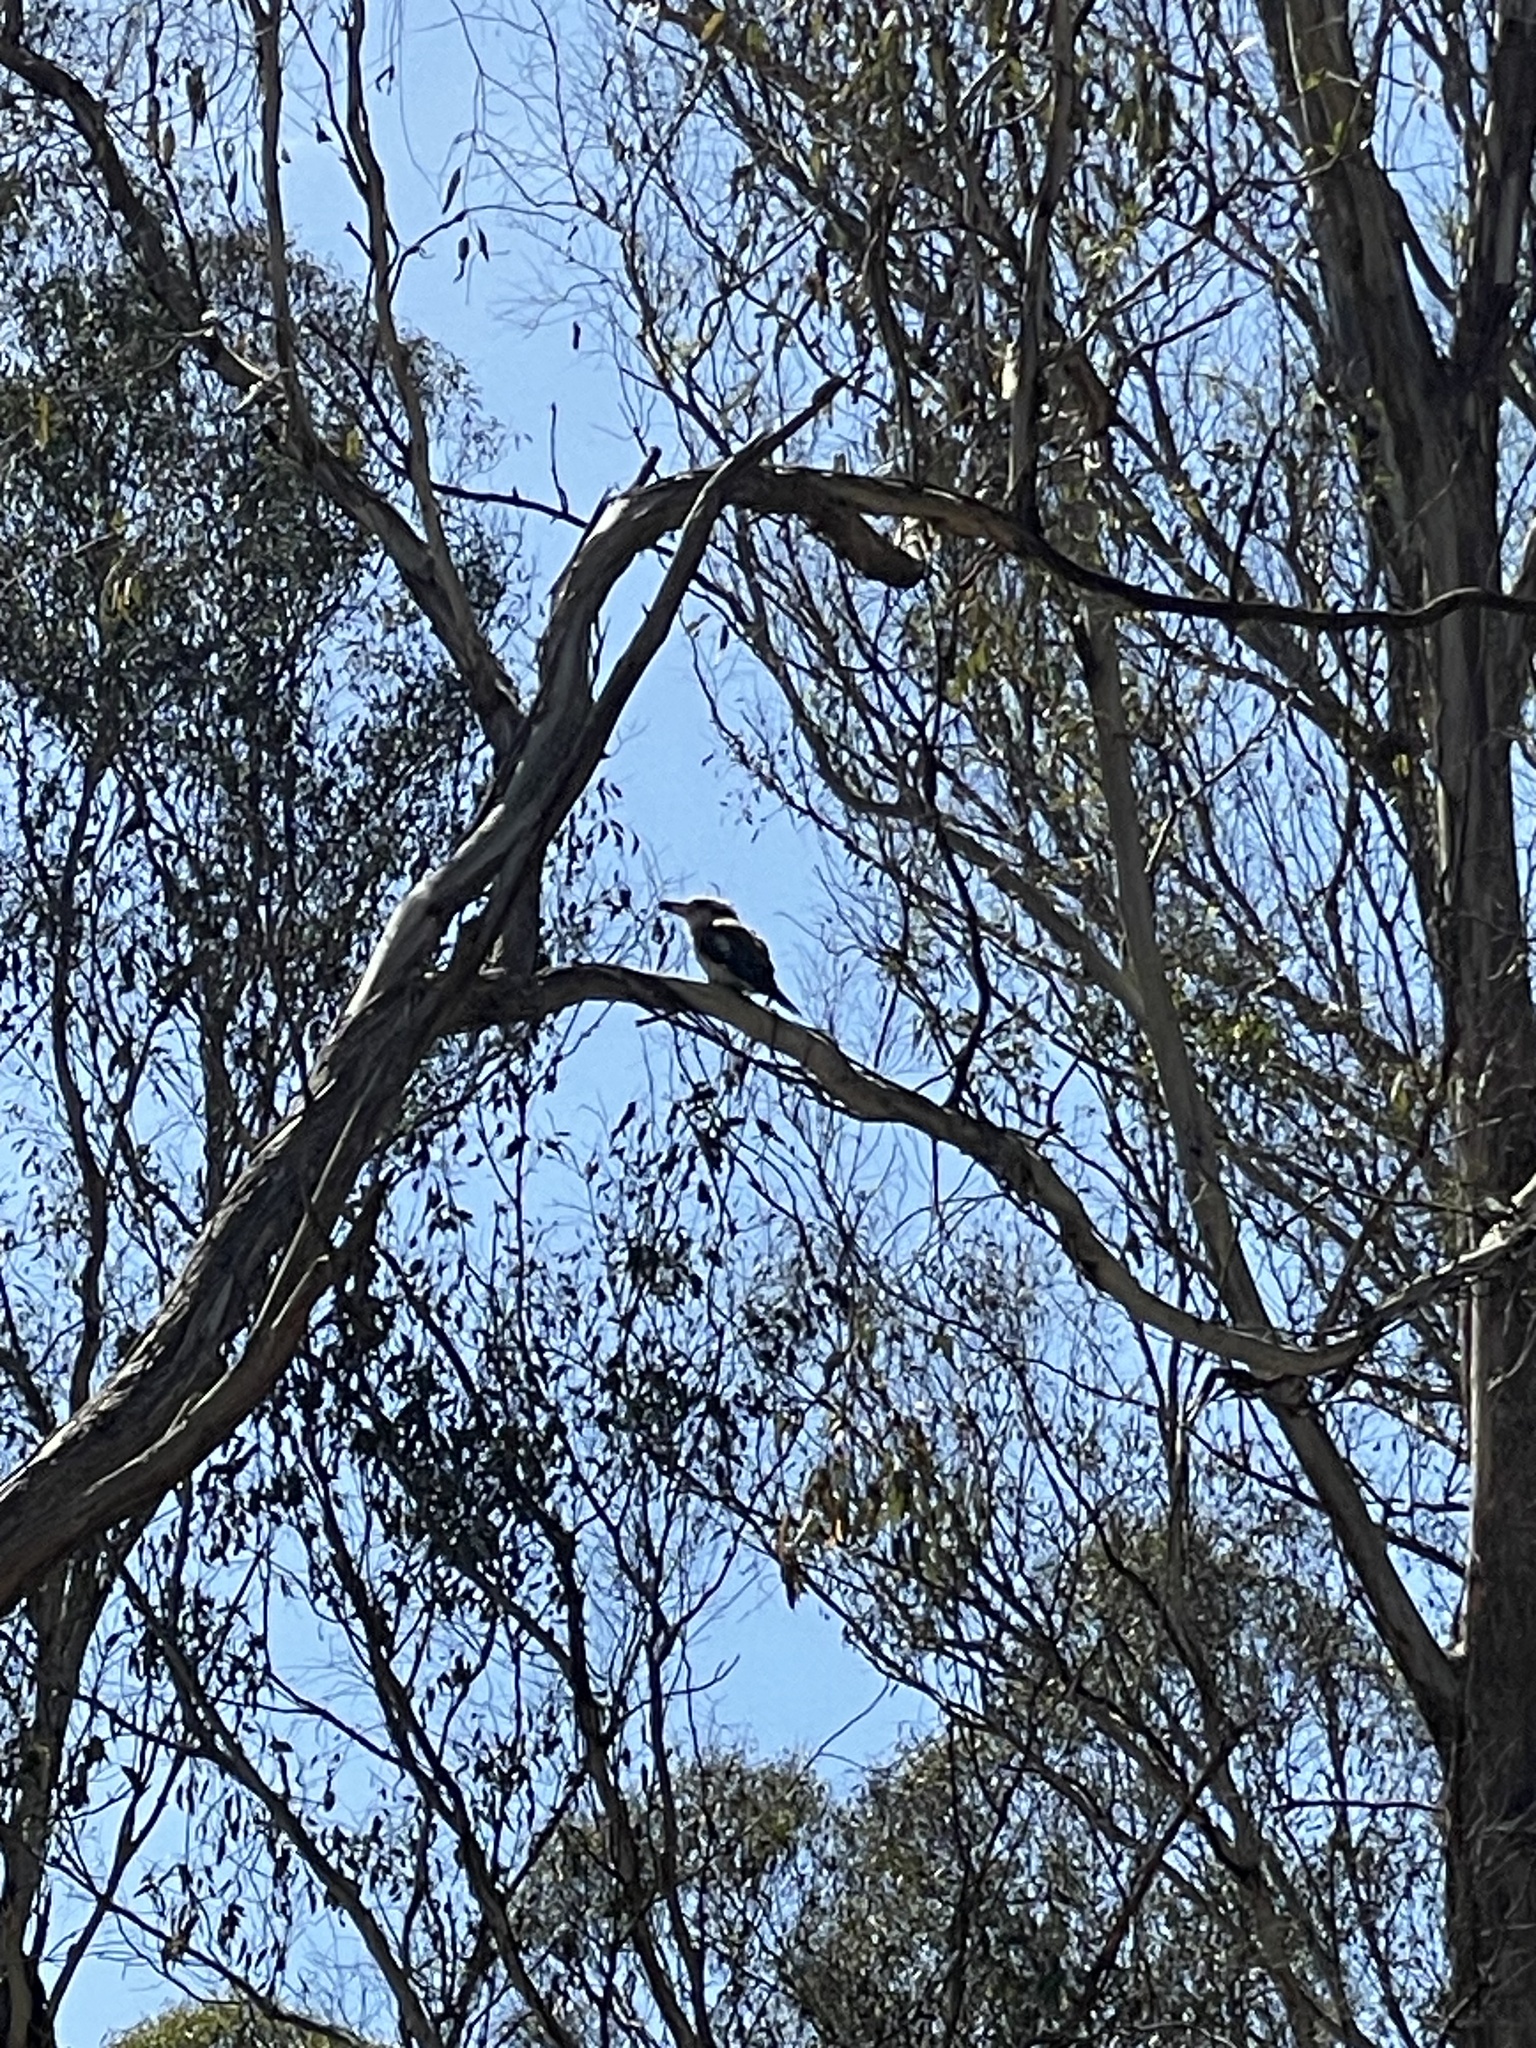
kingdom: Animalia
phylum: Chordata
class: Aves
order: Coraciiformes
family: Alcedinidae
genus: Dacelo
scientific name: Dacelo novaeguineae
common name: Laughing kookaburra
